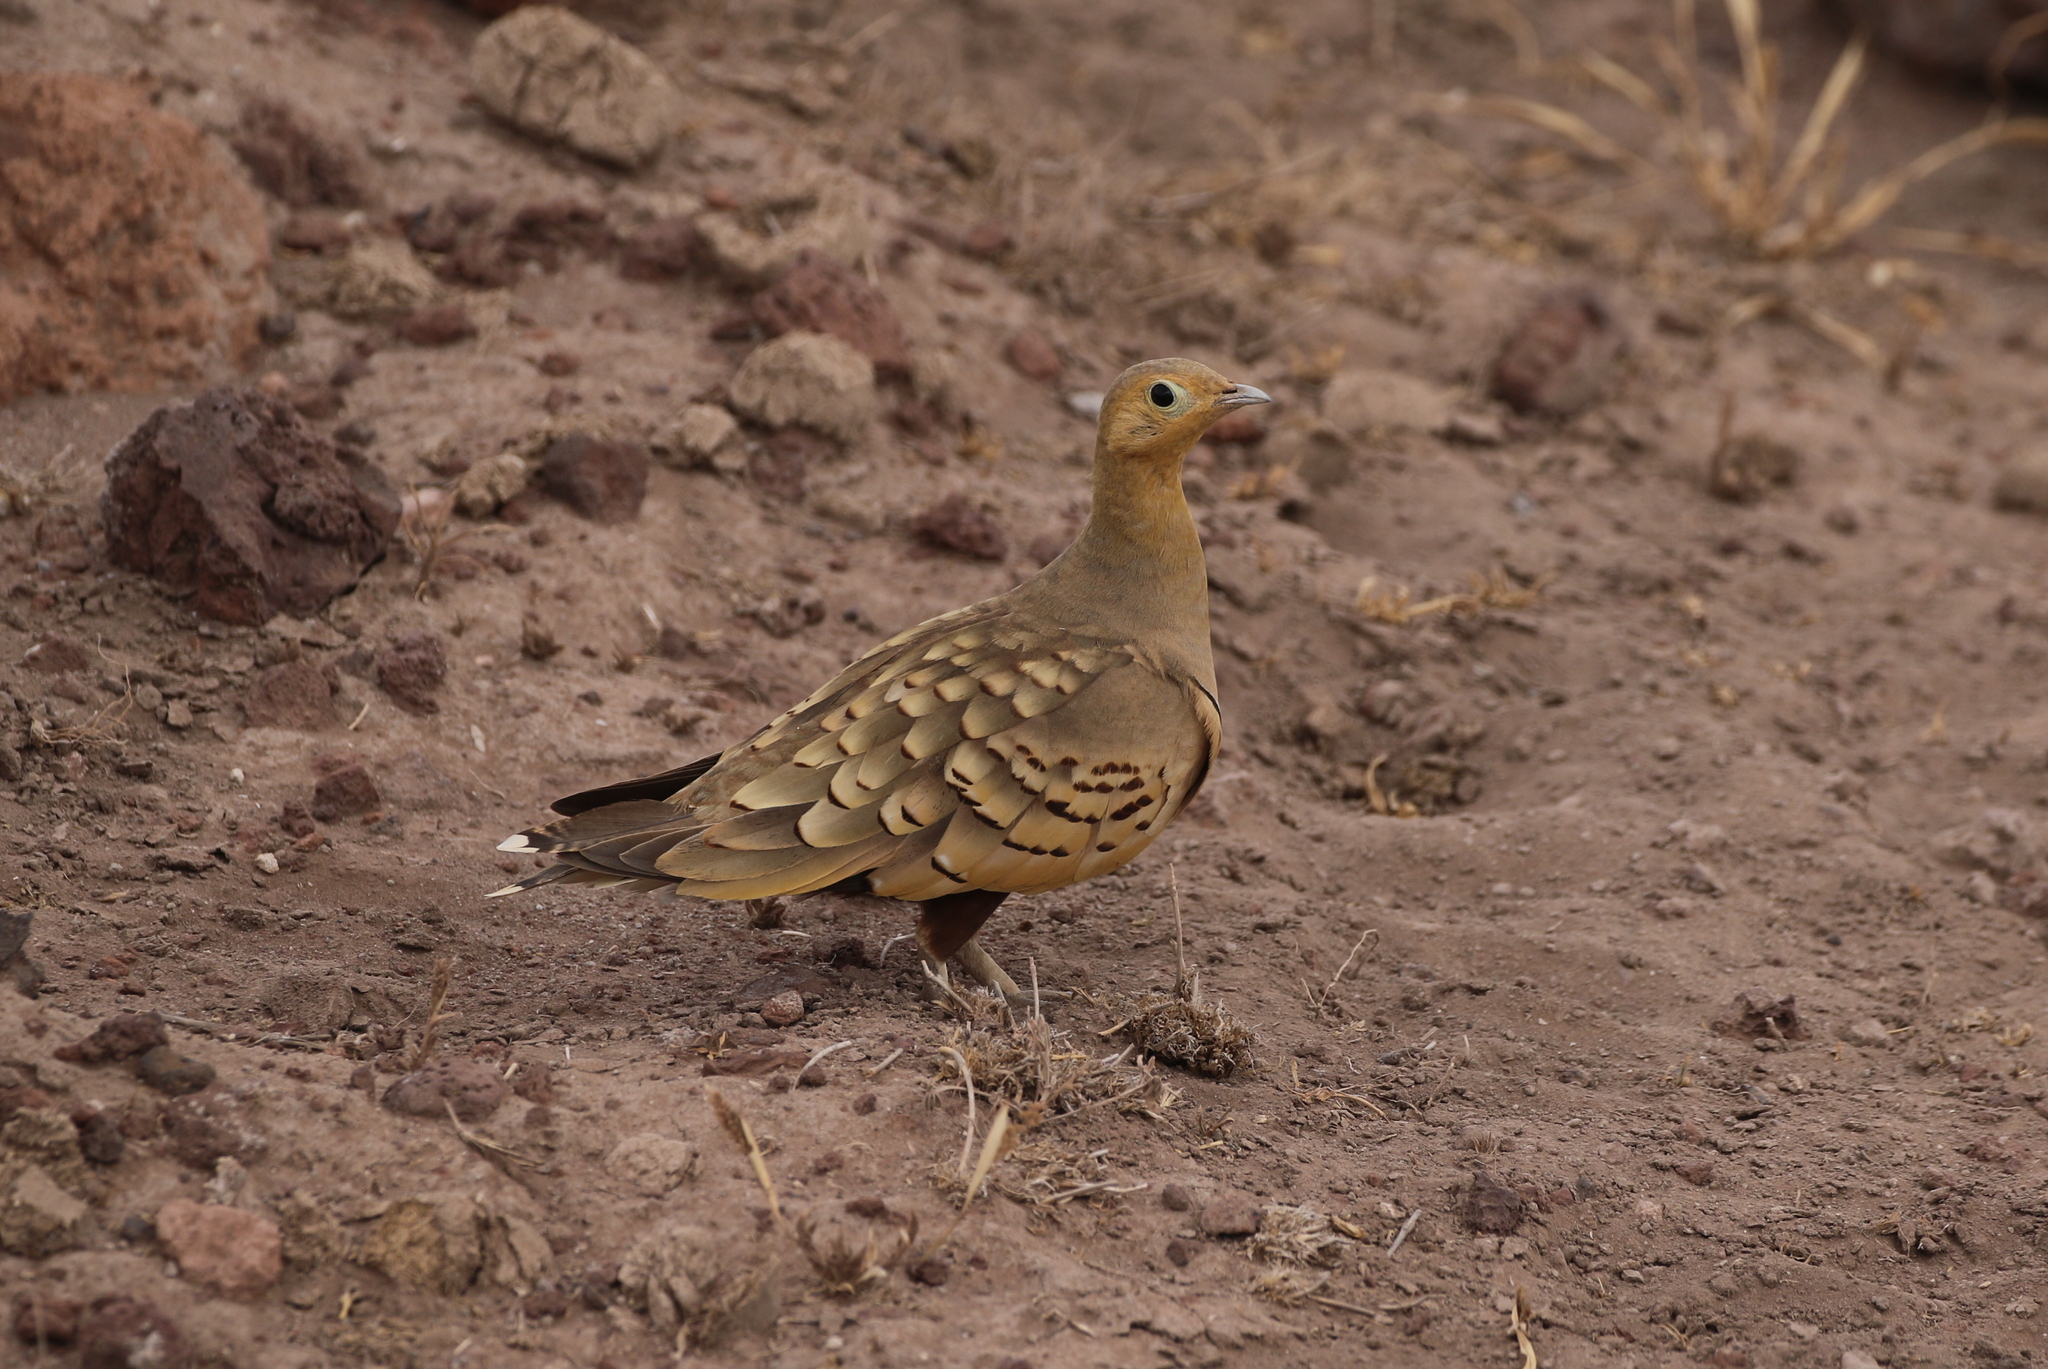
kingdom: Animalia
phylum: Chordata
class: Aves
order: Pteroclidiformes
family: Pteroclididae
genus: Pterocles
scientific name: Pterocles exustus
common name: Chestnut-bellied sandgrouse
